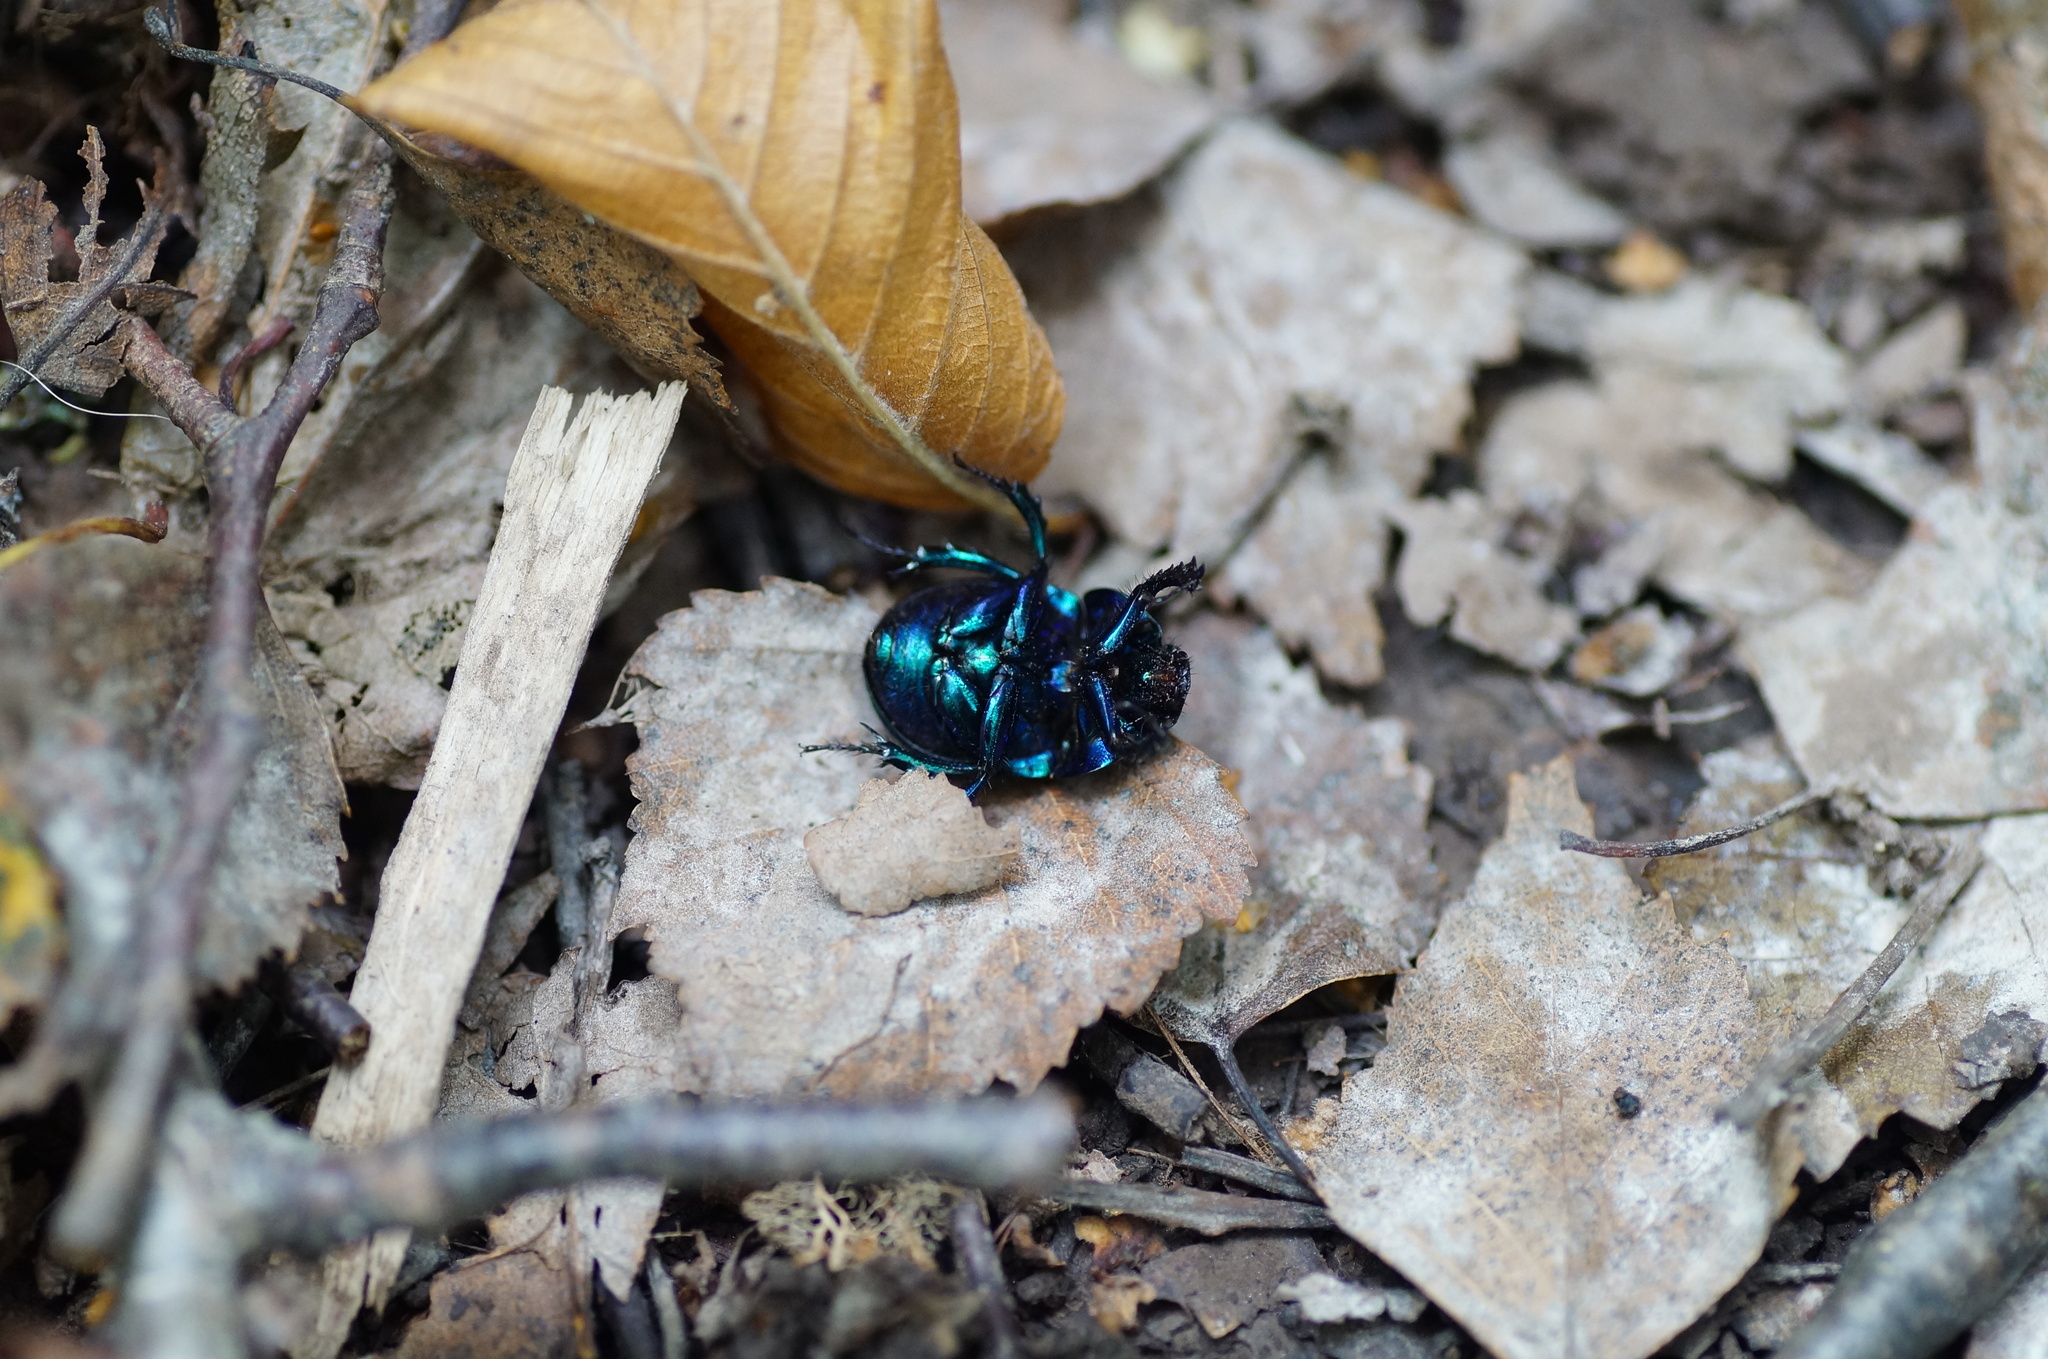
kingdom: Animalia
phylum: Arthropoda
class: Insecta
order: Coleoptera
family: Geotrupidae
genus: Anoplotrupes
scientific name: Anoplotrupes stercorosus
